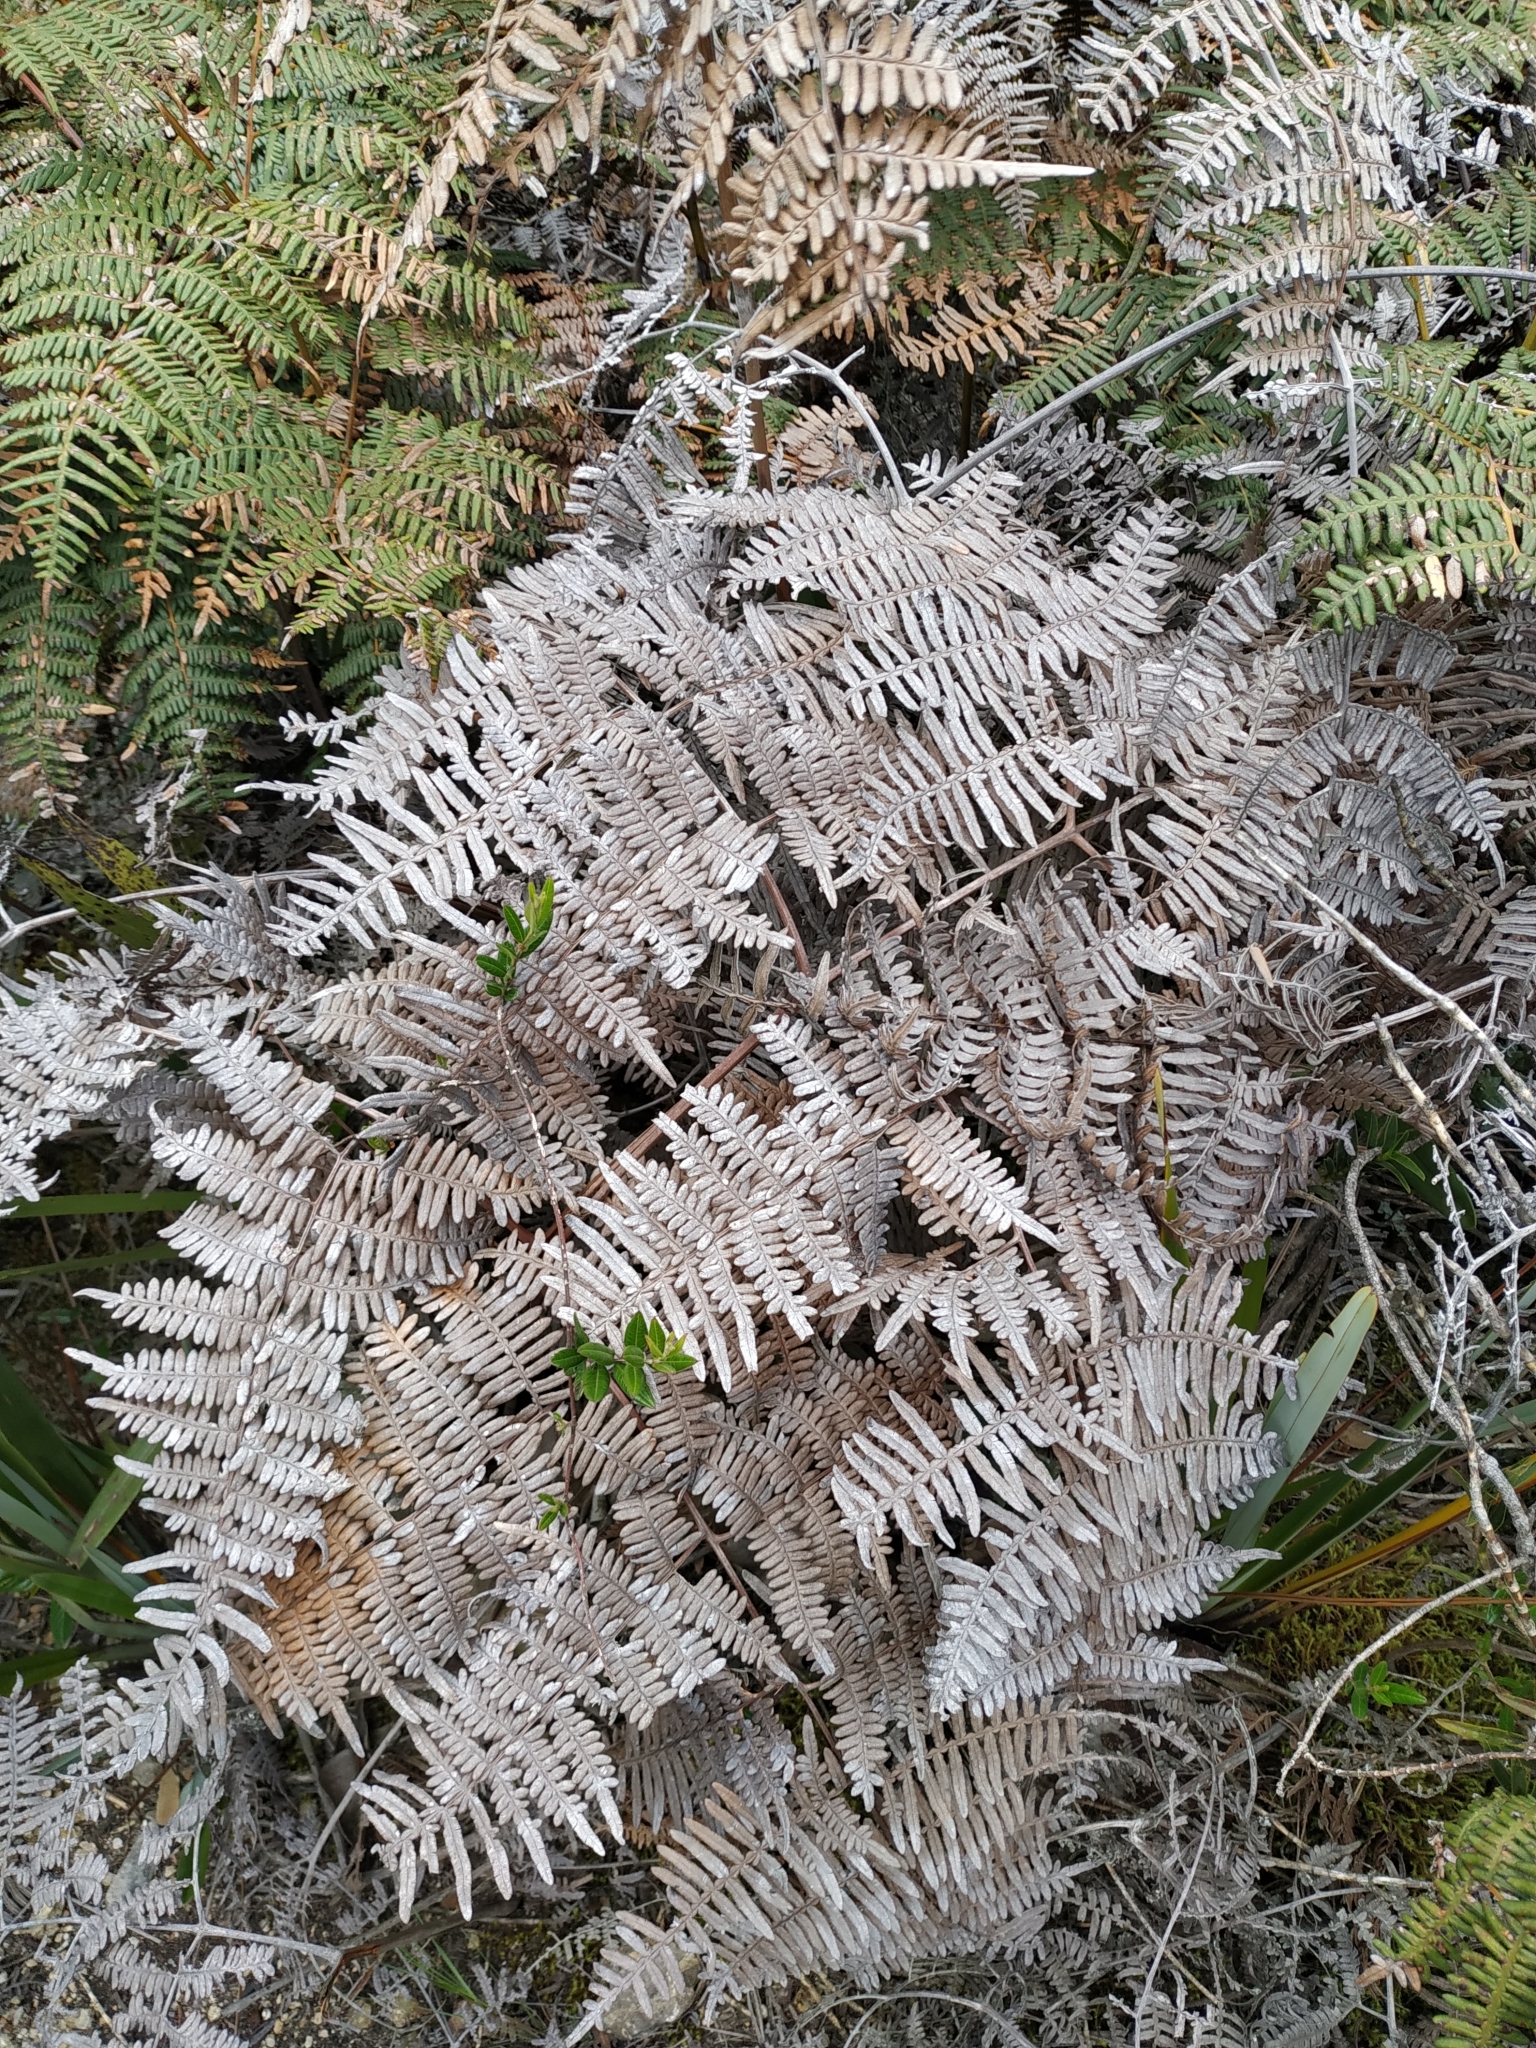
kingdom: Plantae
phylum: Tracheophyta
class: Polypodiopsida
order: Polypodiales
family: Dennstaedtiaceae
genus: Pteridium
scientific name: Pteridium esculentum
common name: Bracken fern
